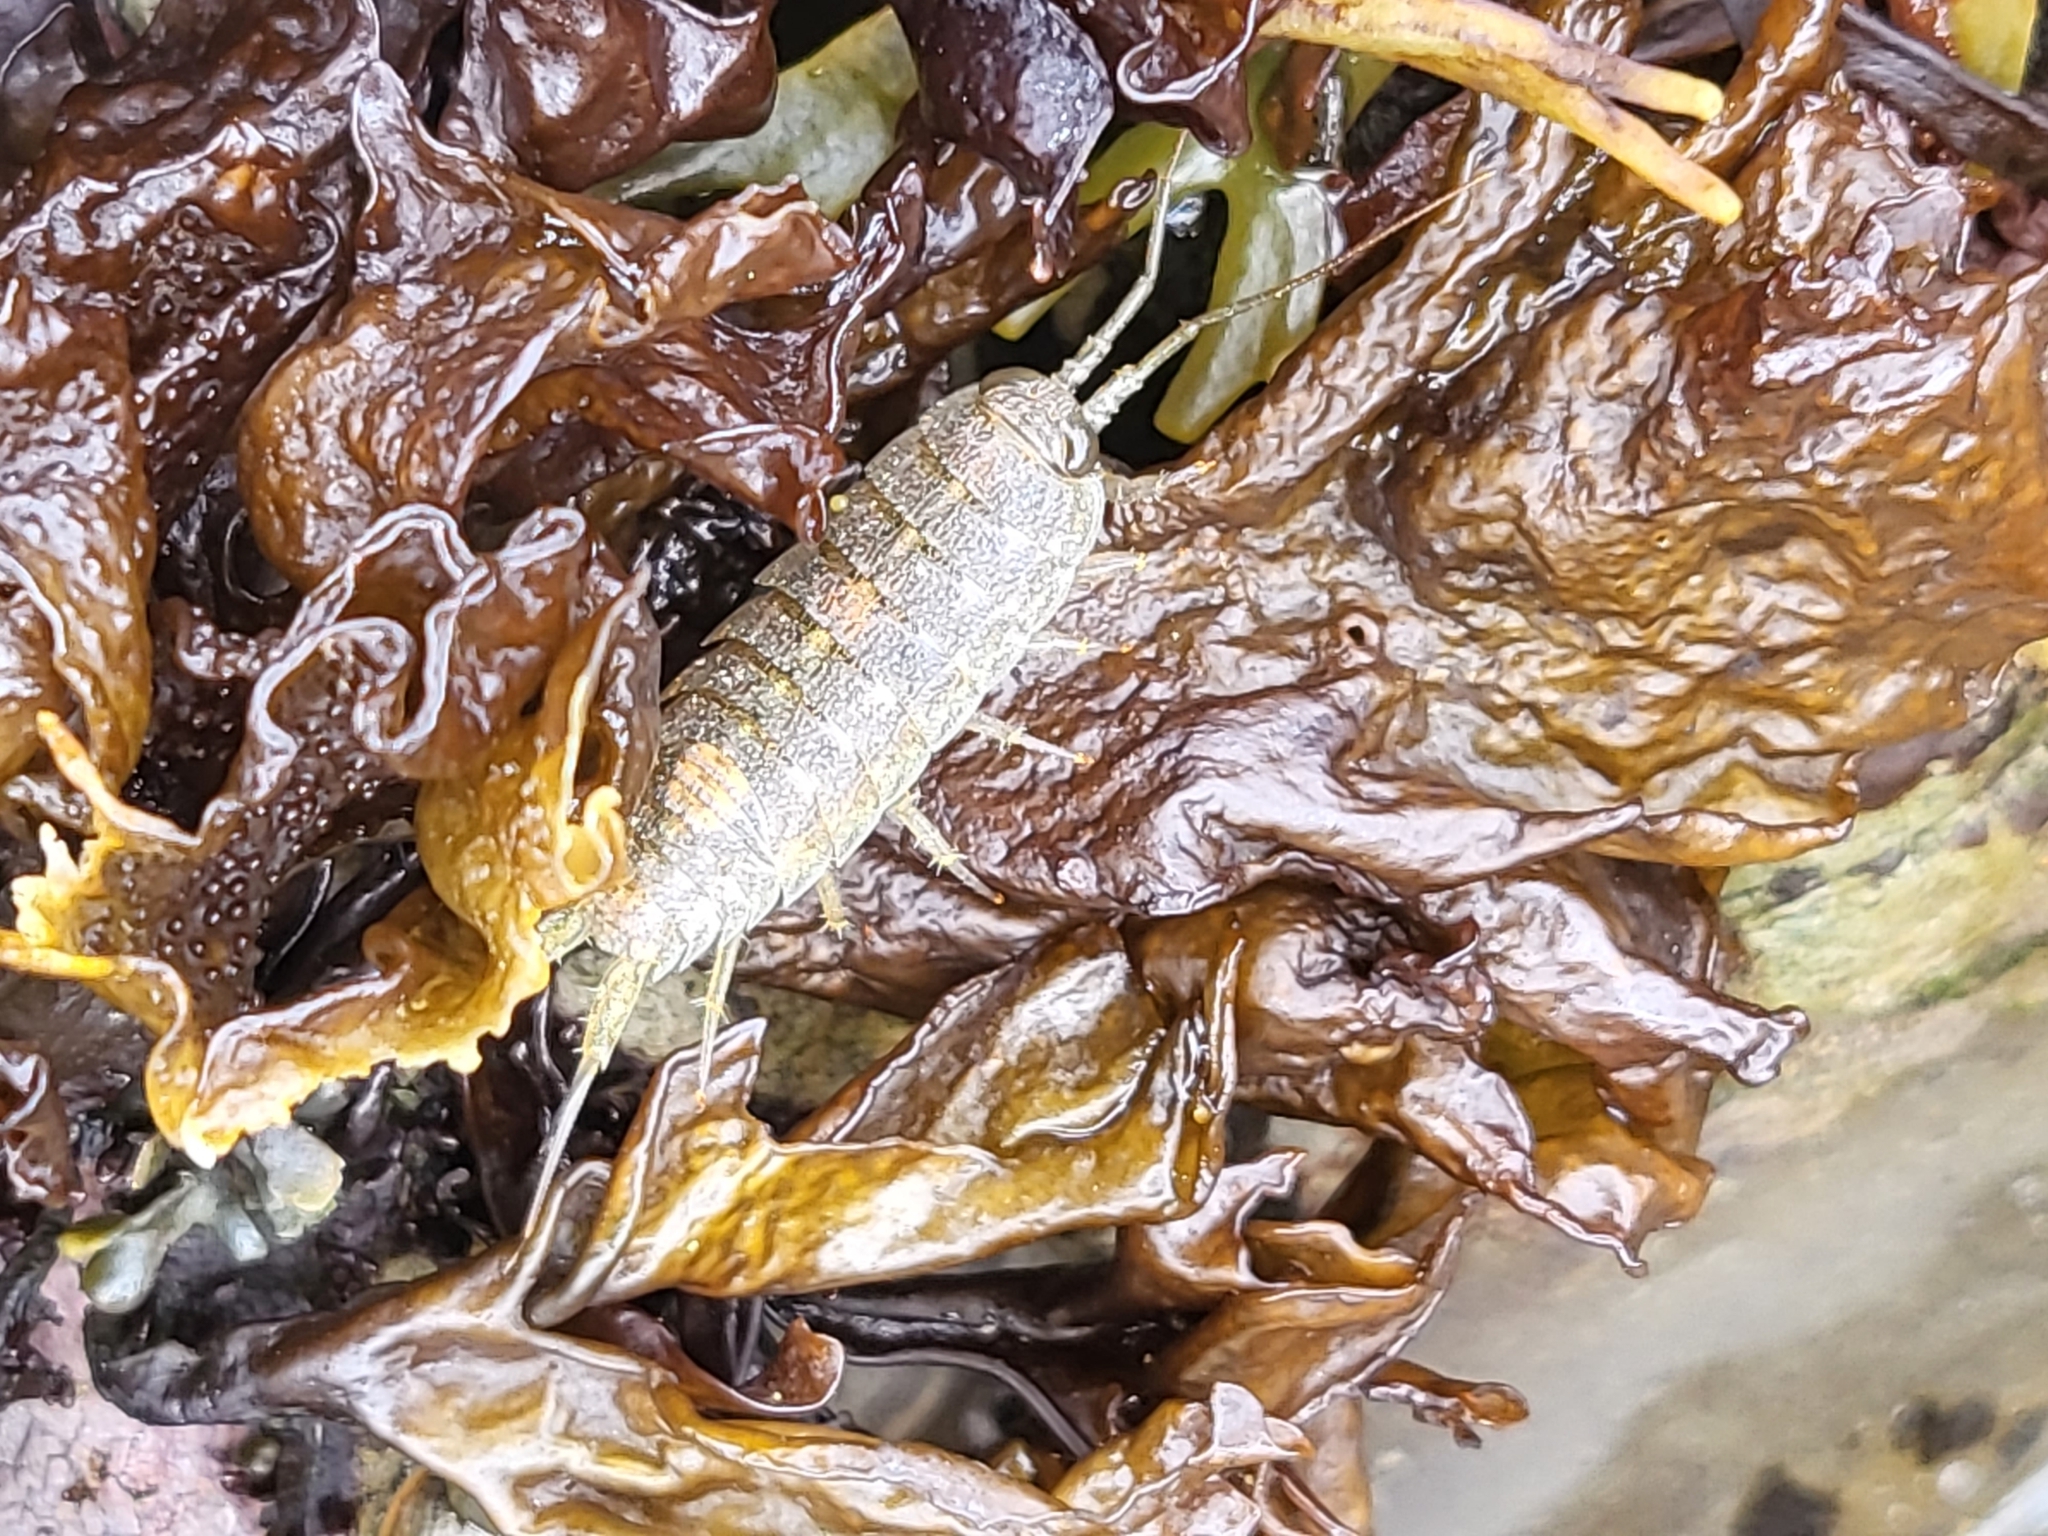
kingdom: Animalia
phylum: Arthropoda
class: Malacostraca
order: Isopoda
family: Ligiidae
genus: Ligia
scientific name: Ligia occidentalis
